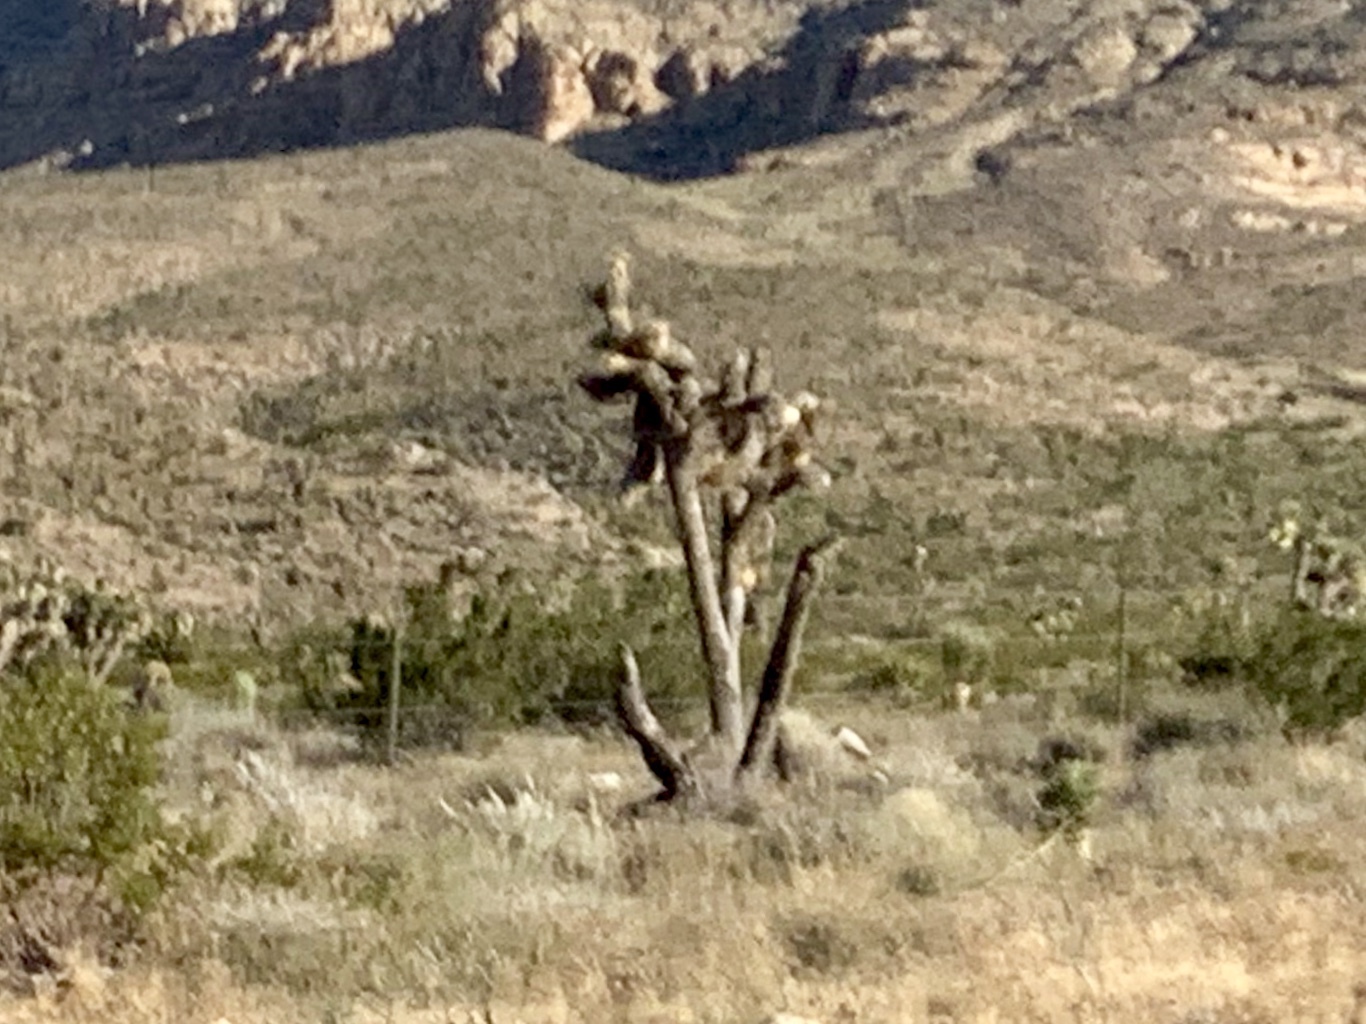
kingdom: Plantae
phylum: Tracheophyta
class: Liliopsida
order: Asparagales
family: Asparagaceae
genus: Yucca
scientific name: Yucca brevifolia
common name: Joshua tree
